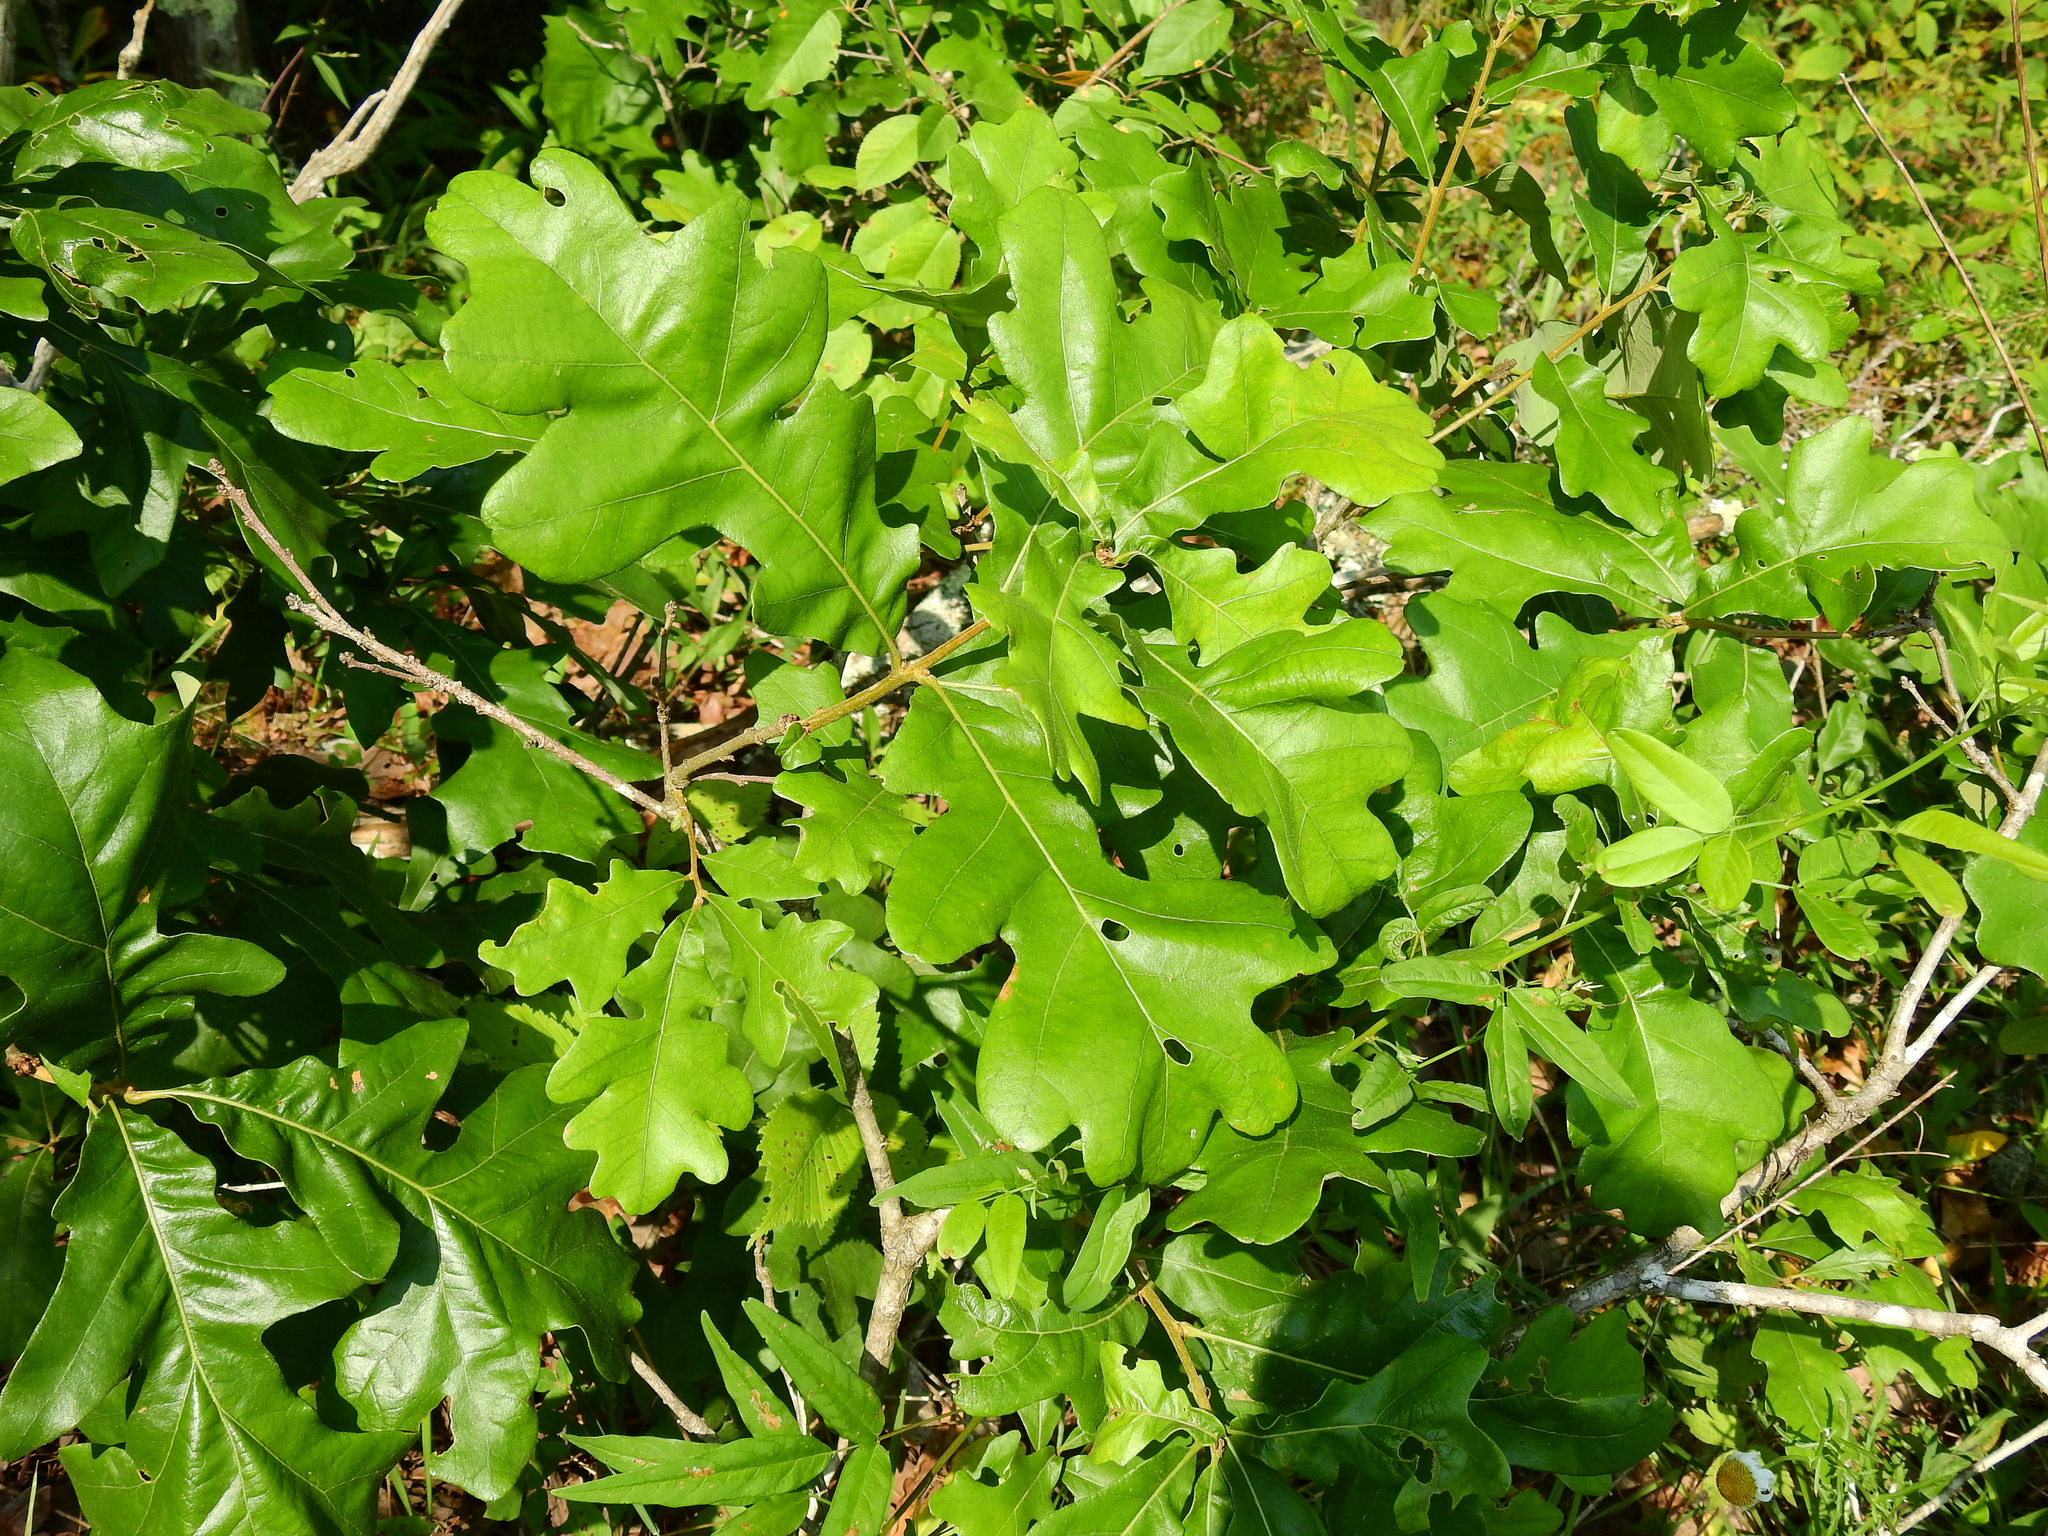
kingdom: Plantae
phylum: Tracheophyta
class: Magnoliopsida
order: Fagales
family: Fagaceae
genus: Quercus
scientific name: Quercus stellata
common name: Post oak
